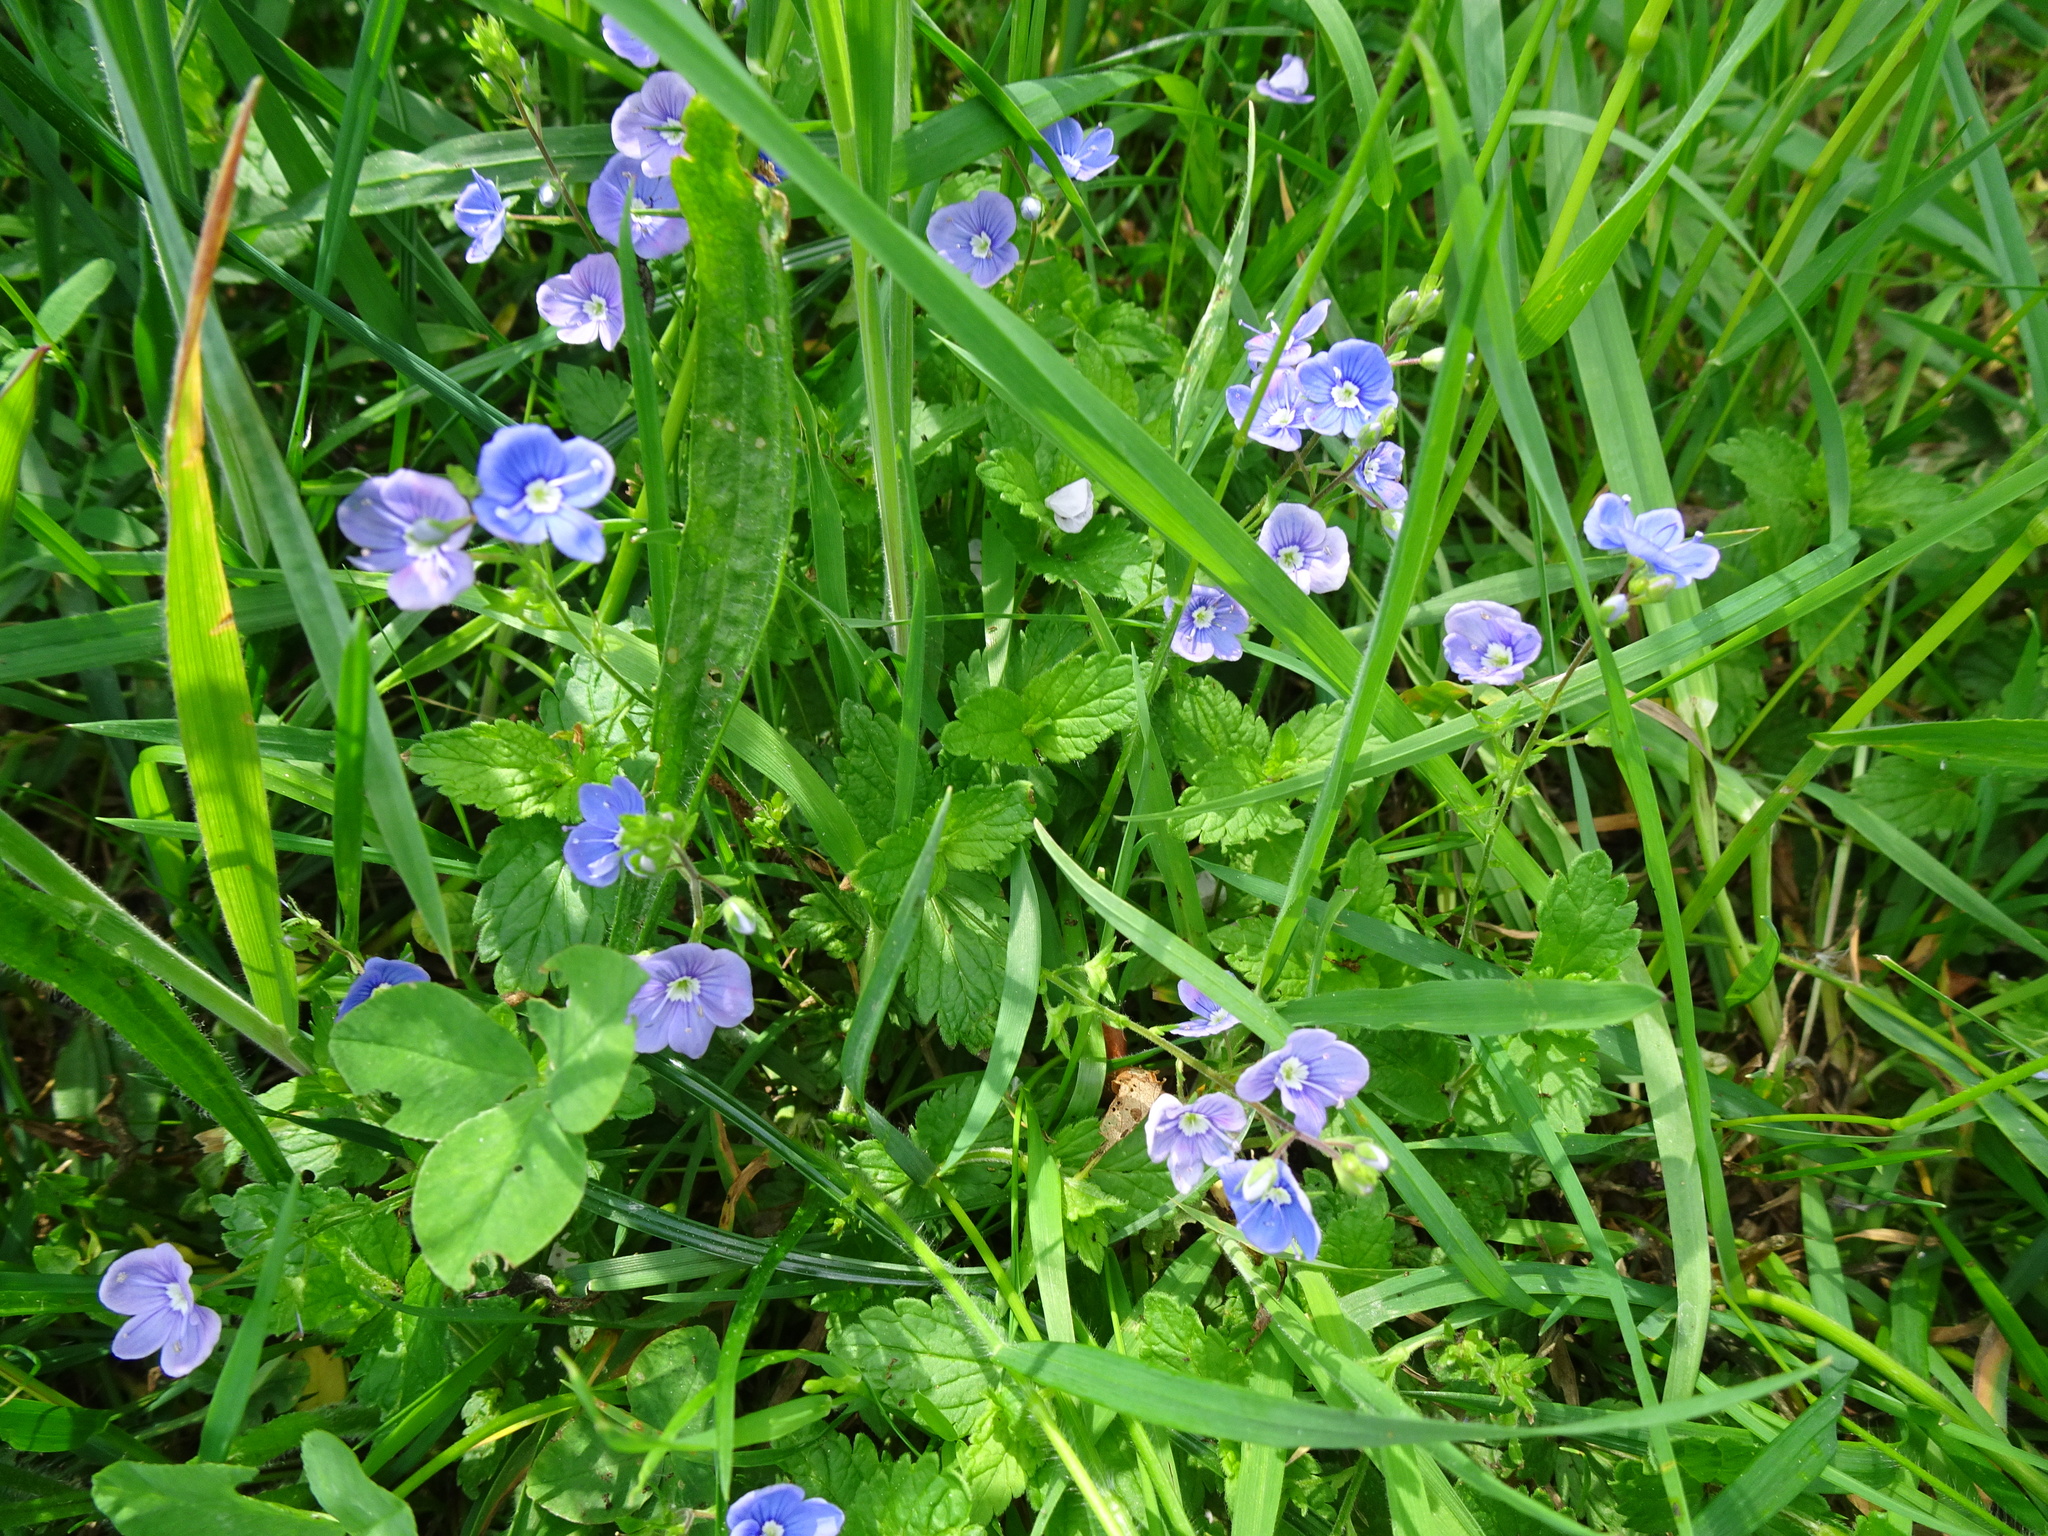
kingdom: Plantae
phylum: Tracheophyta
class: Magnoliopsida
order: Lamiales
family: Plantaginaceae
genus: Veronica
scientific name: Veronica chamaedrys
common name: Germander speedwell
